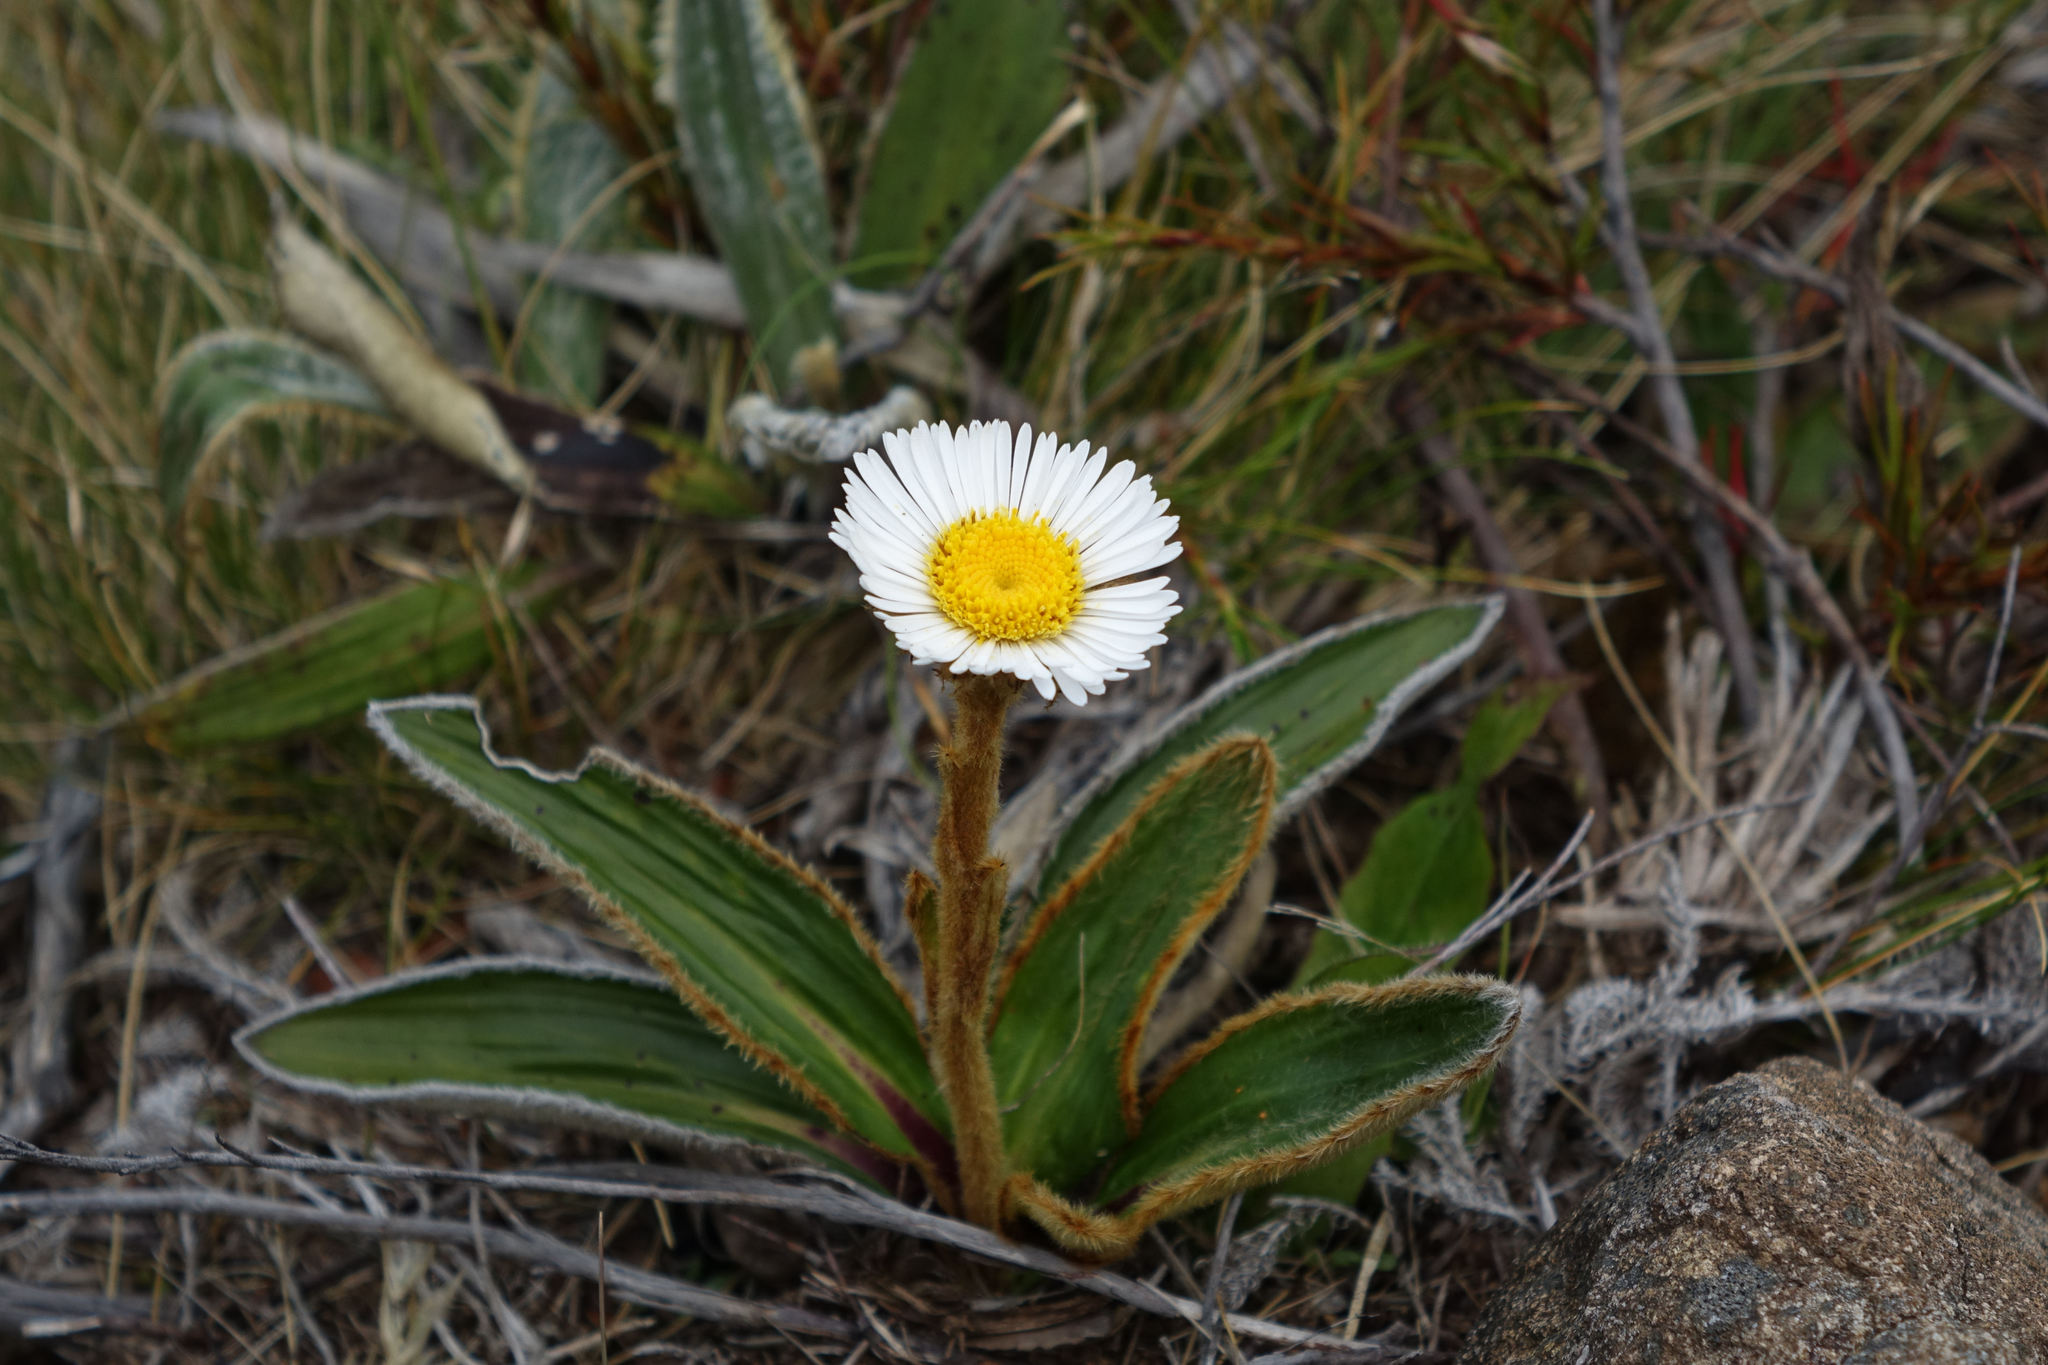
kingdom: Plantae
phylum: Tracheophyta
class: Magnoliopsida
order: Asterales
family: Asteraceae
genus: Celmisia
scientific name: Celmisia traversii
